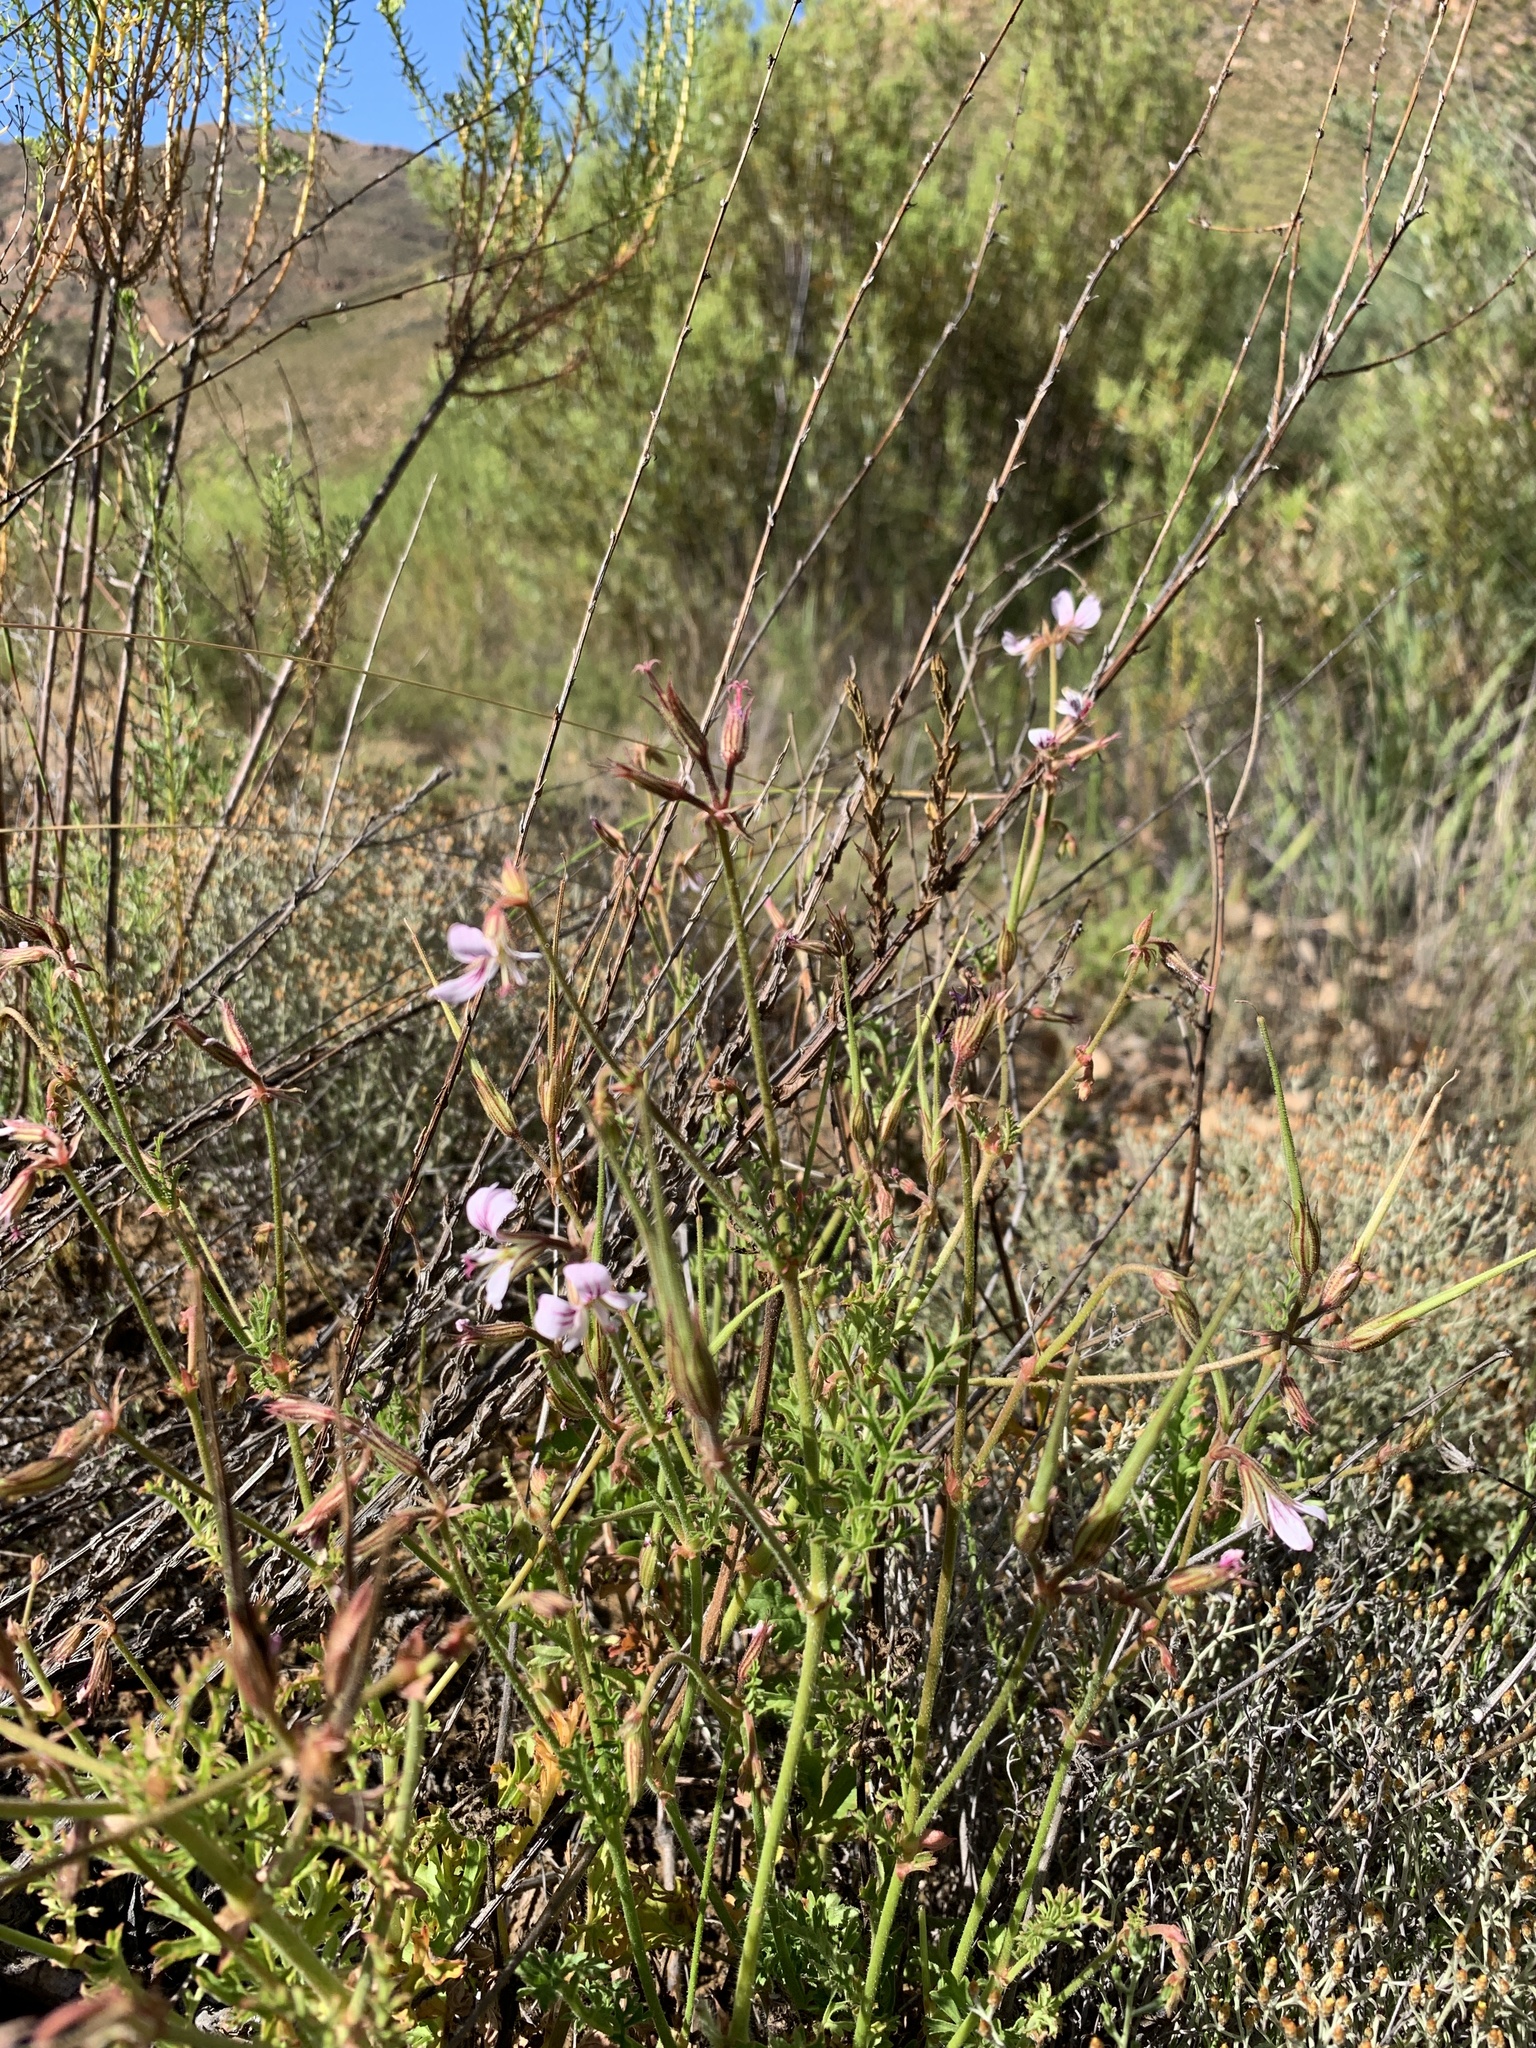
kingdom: Plantae
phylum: Tracheophyta
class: Magnoliopsida
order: Geraniales
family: Geraniaceae
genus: Pelargonium
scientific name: Pelargonium myrrhifolium
